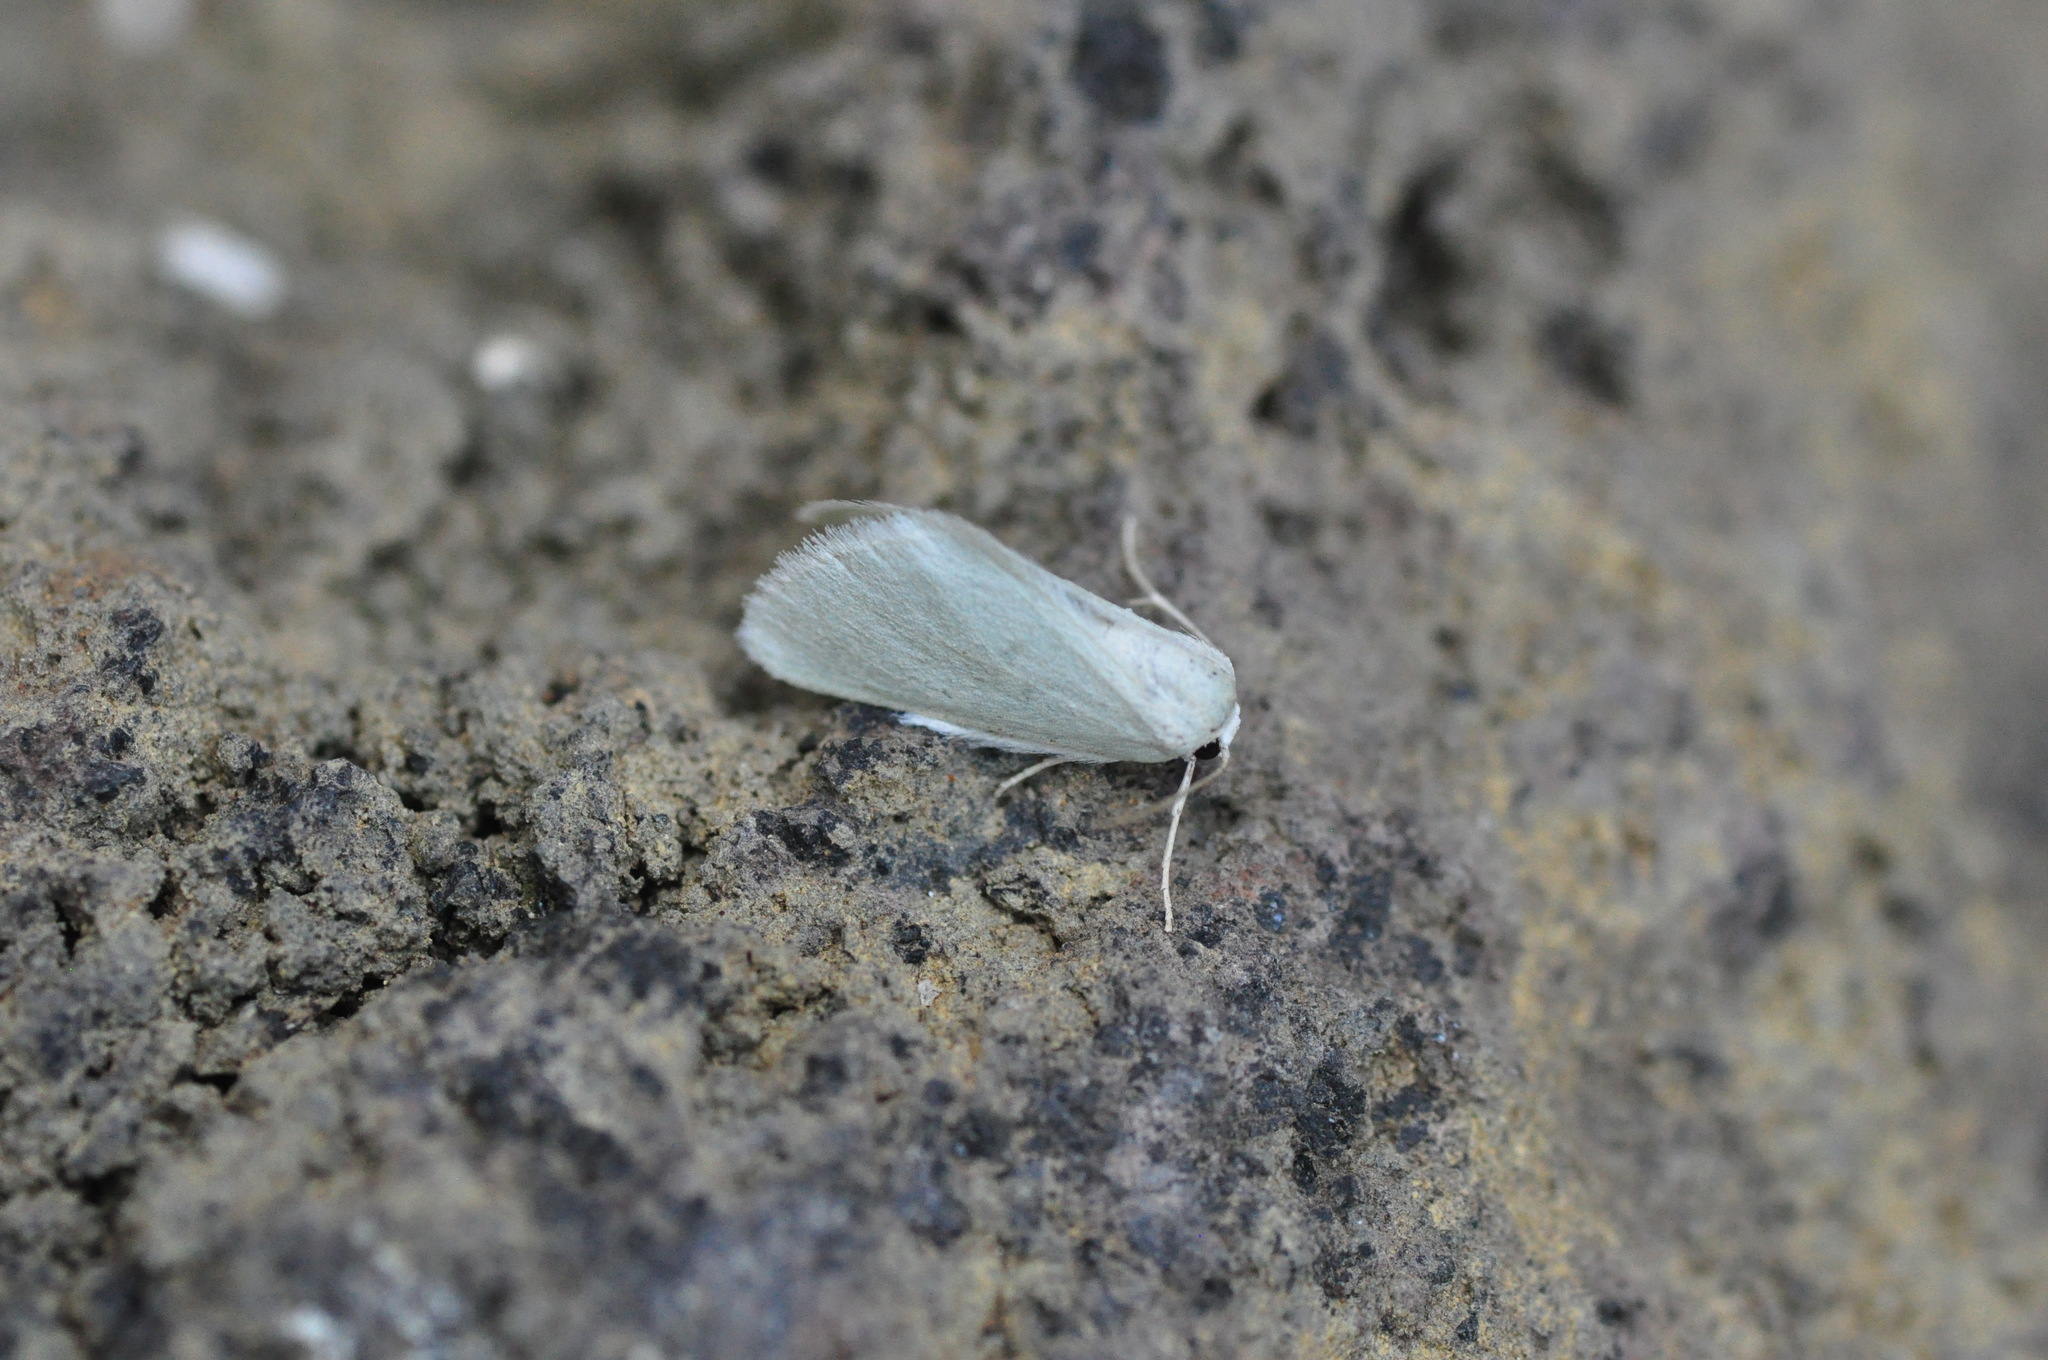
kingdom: Animalia
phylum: Arthropoda
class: Insecta
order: Lepidoptera
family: Geometridae
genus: Microloxia
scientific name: Microloxia simonyi
